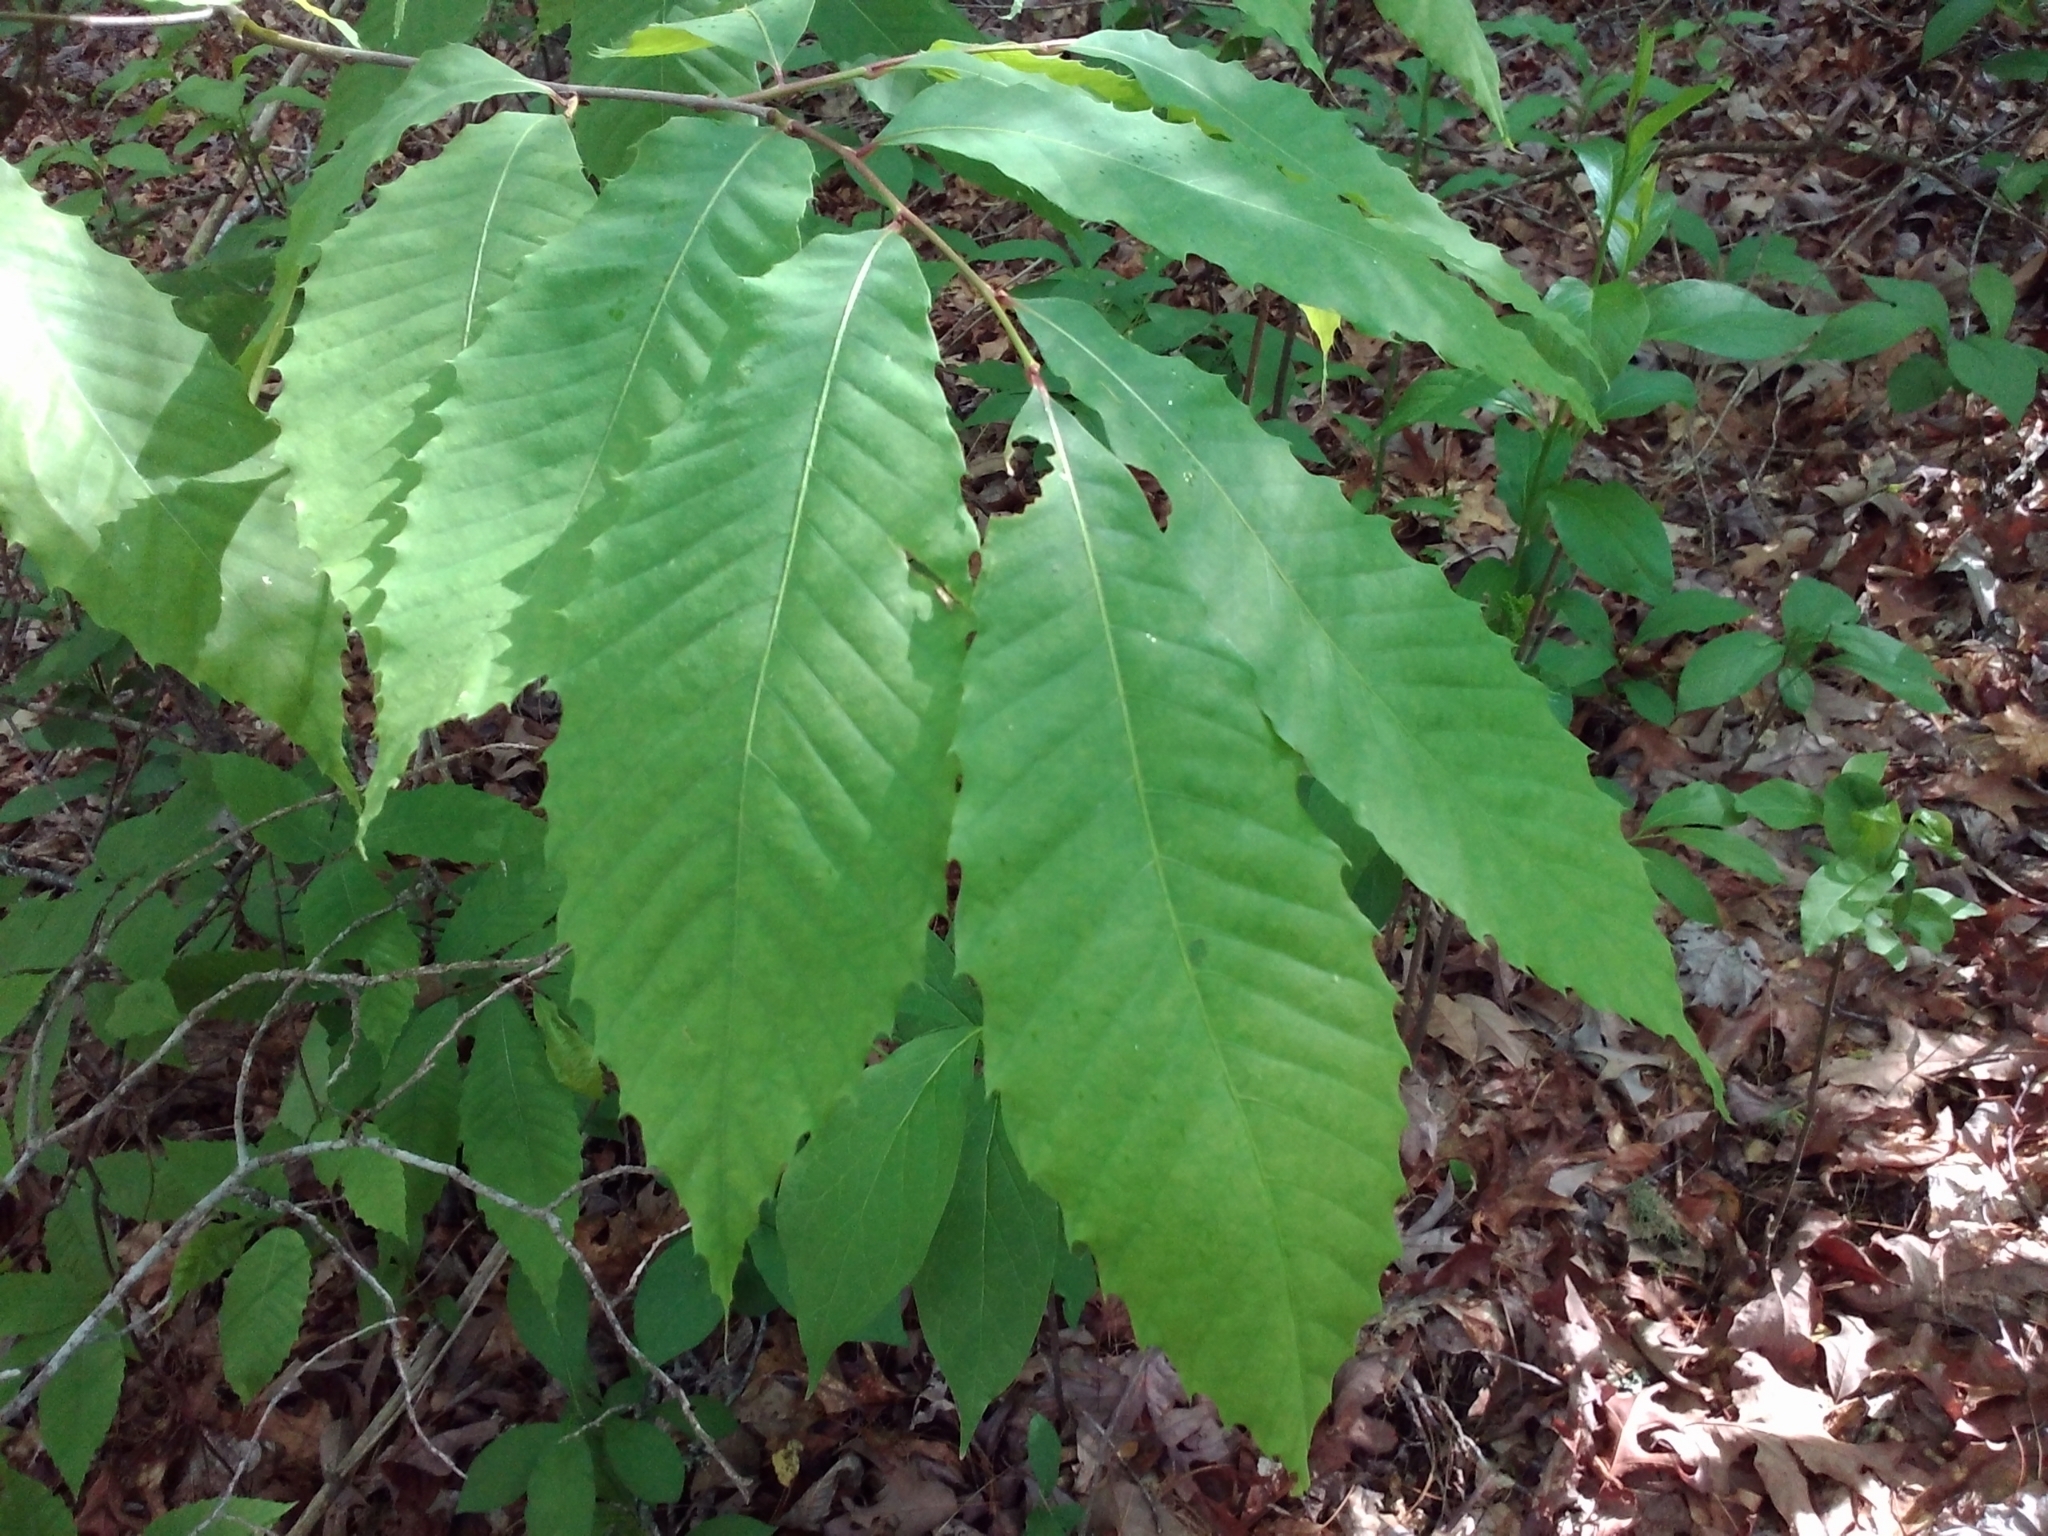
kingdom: Plantae
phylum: Tracheophyta
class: Magnoliopsida
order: Fagales
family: Fagaceae
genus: Castanea
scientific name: Castanea dentata
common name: American chestnut
